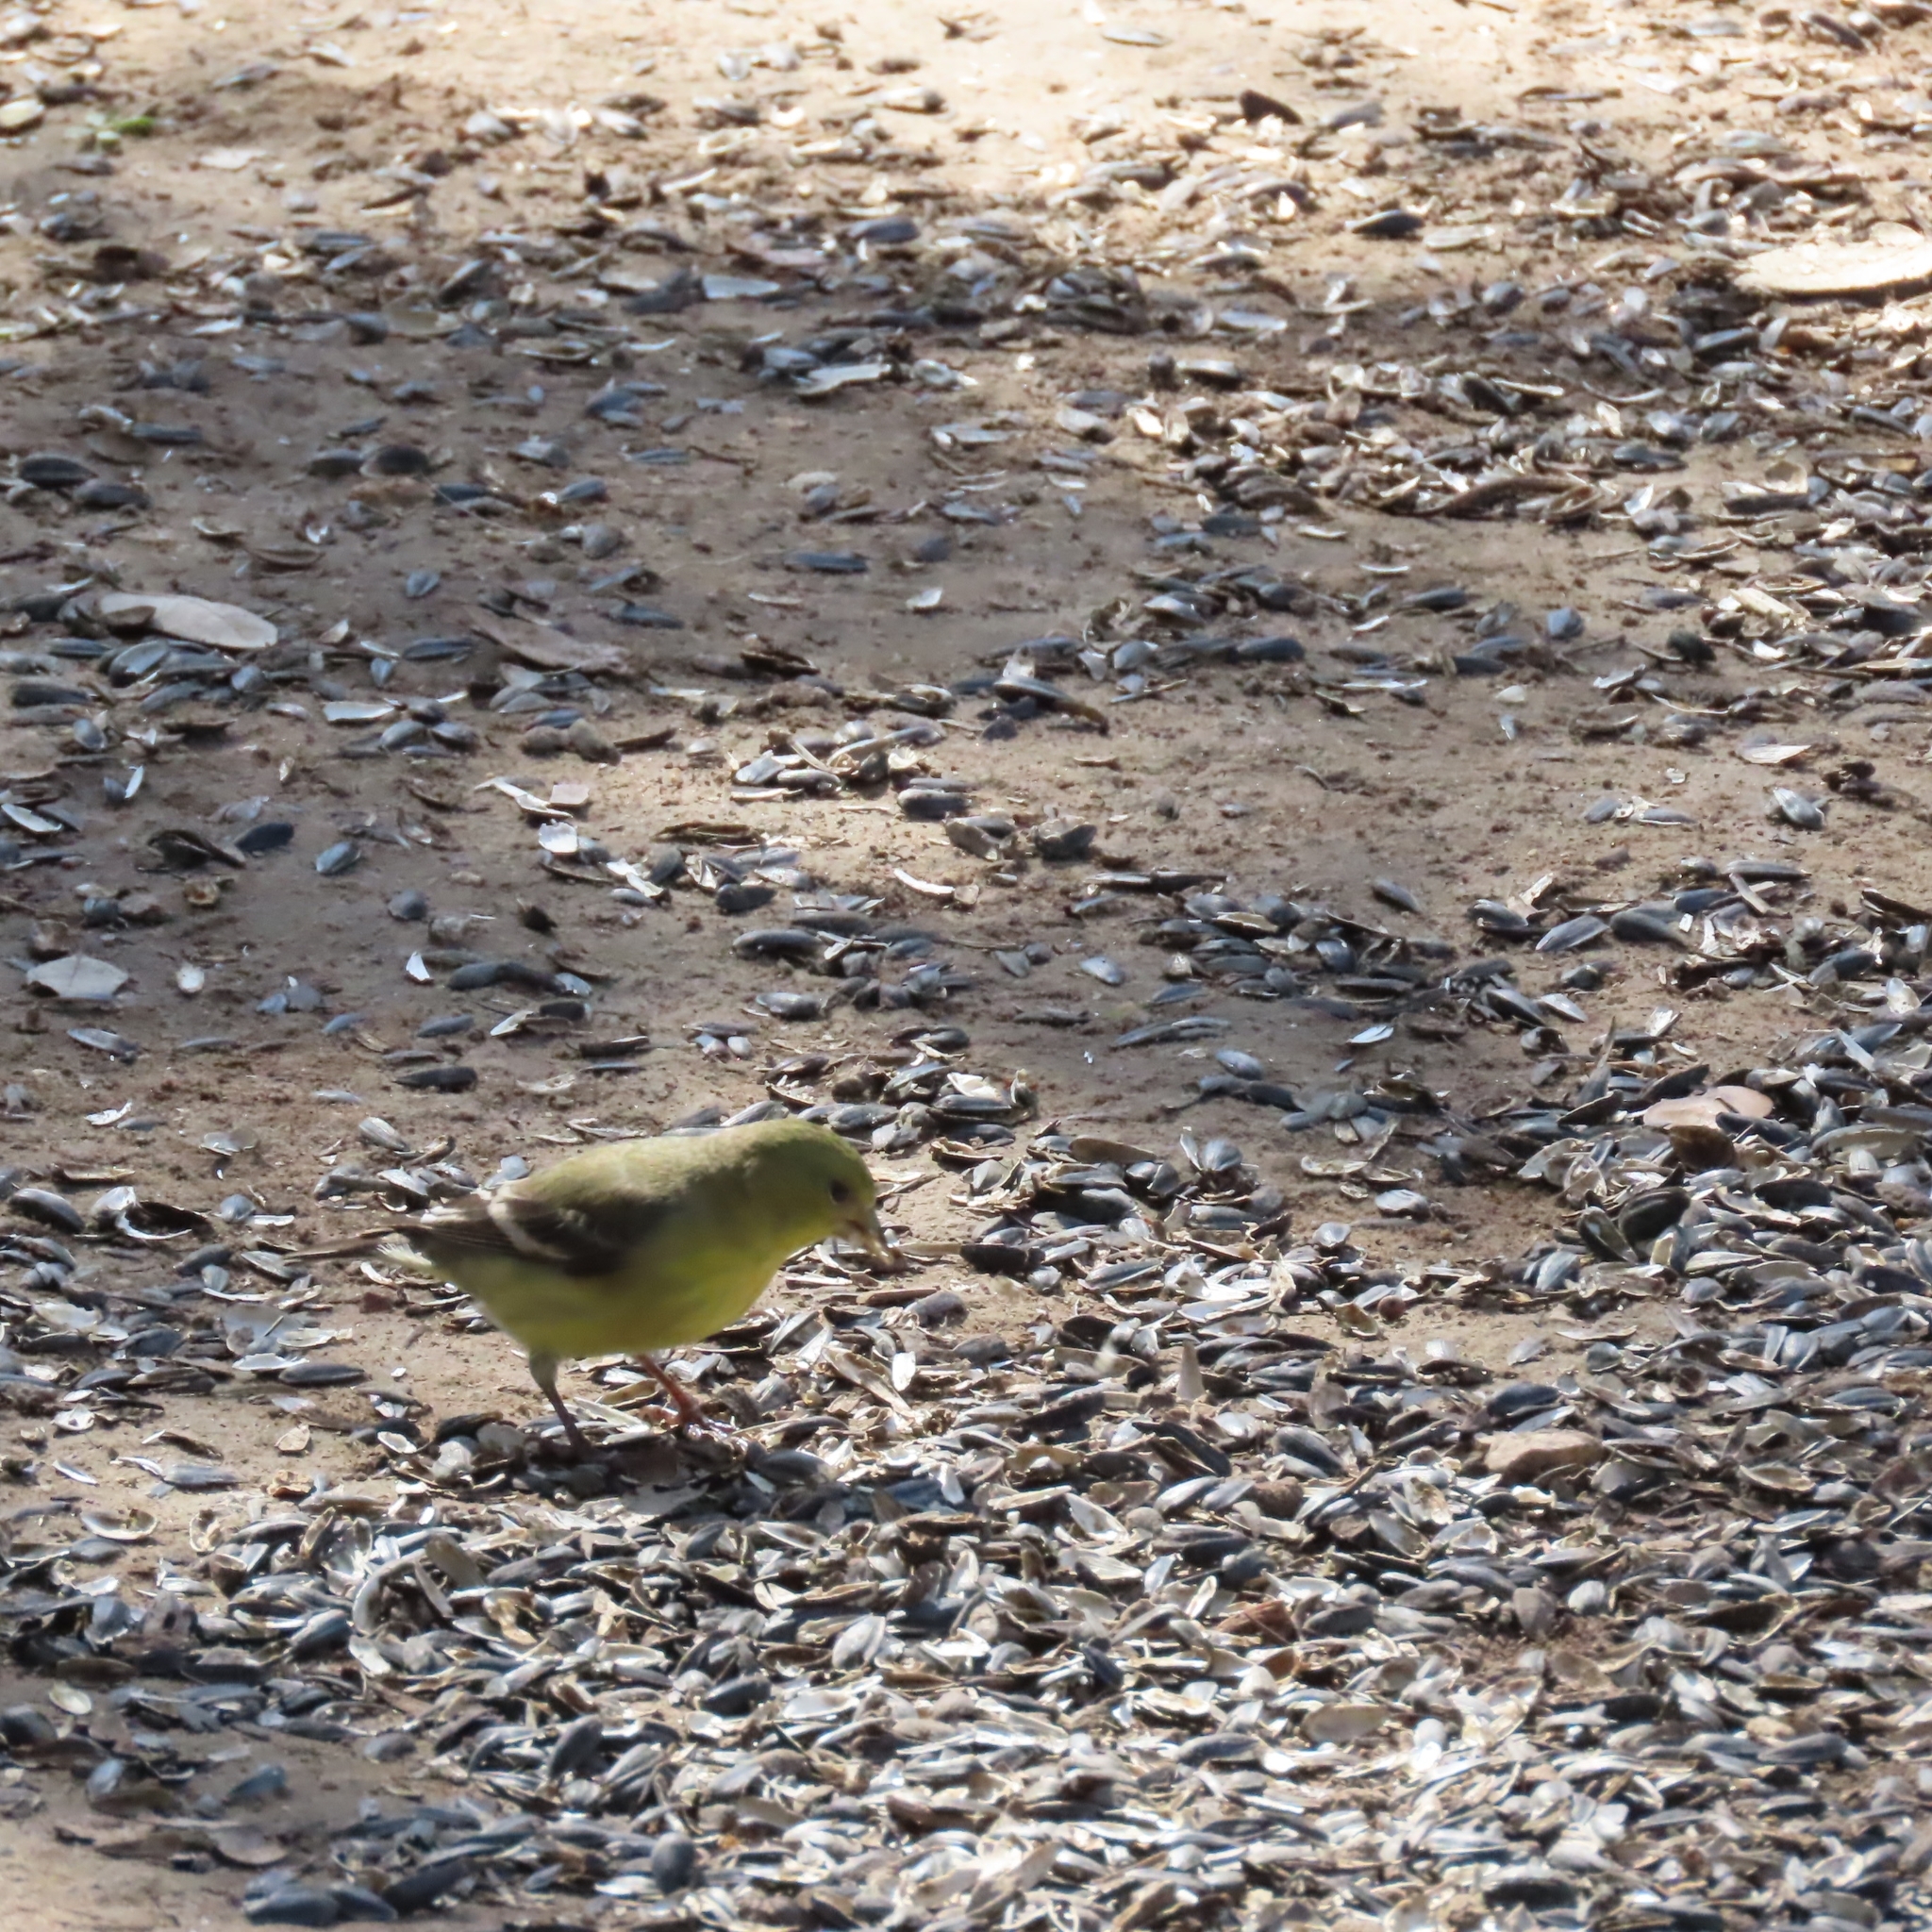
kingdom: Animalia
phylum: Chordata
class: Aves
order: Passeriformes
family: Fringillidae
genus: Spinus
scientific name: Spinus psaltria
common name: Lesser goldfinch
